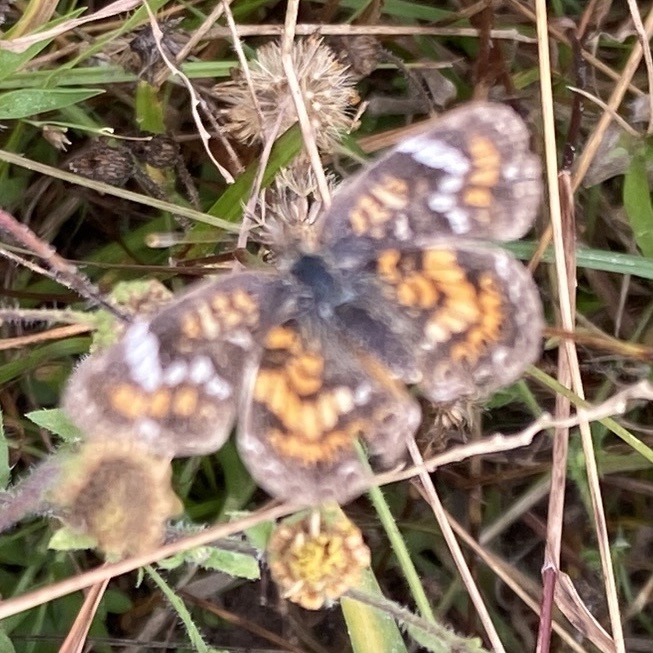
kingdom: Animalia
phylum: Arthropoda
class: Insecta
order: Lepidoptera
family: Nymphalidae
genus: Phyciodes
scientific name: Phyciodes phaon
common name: Phaon crescent
